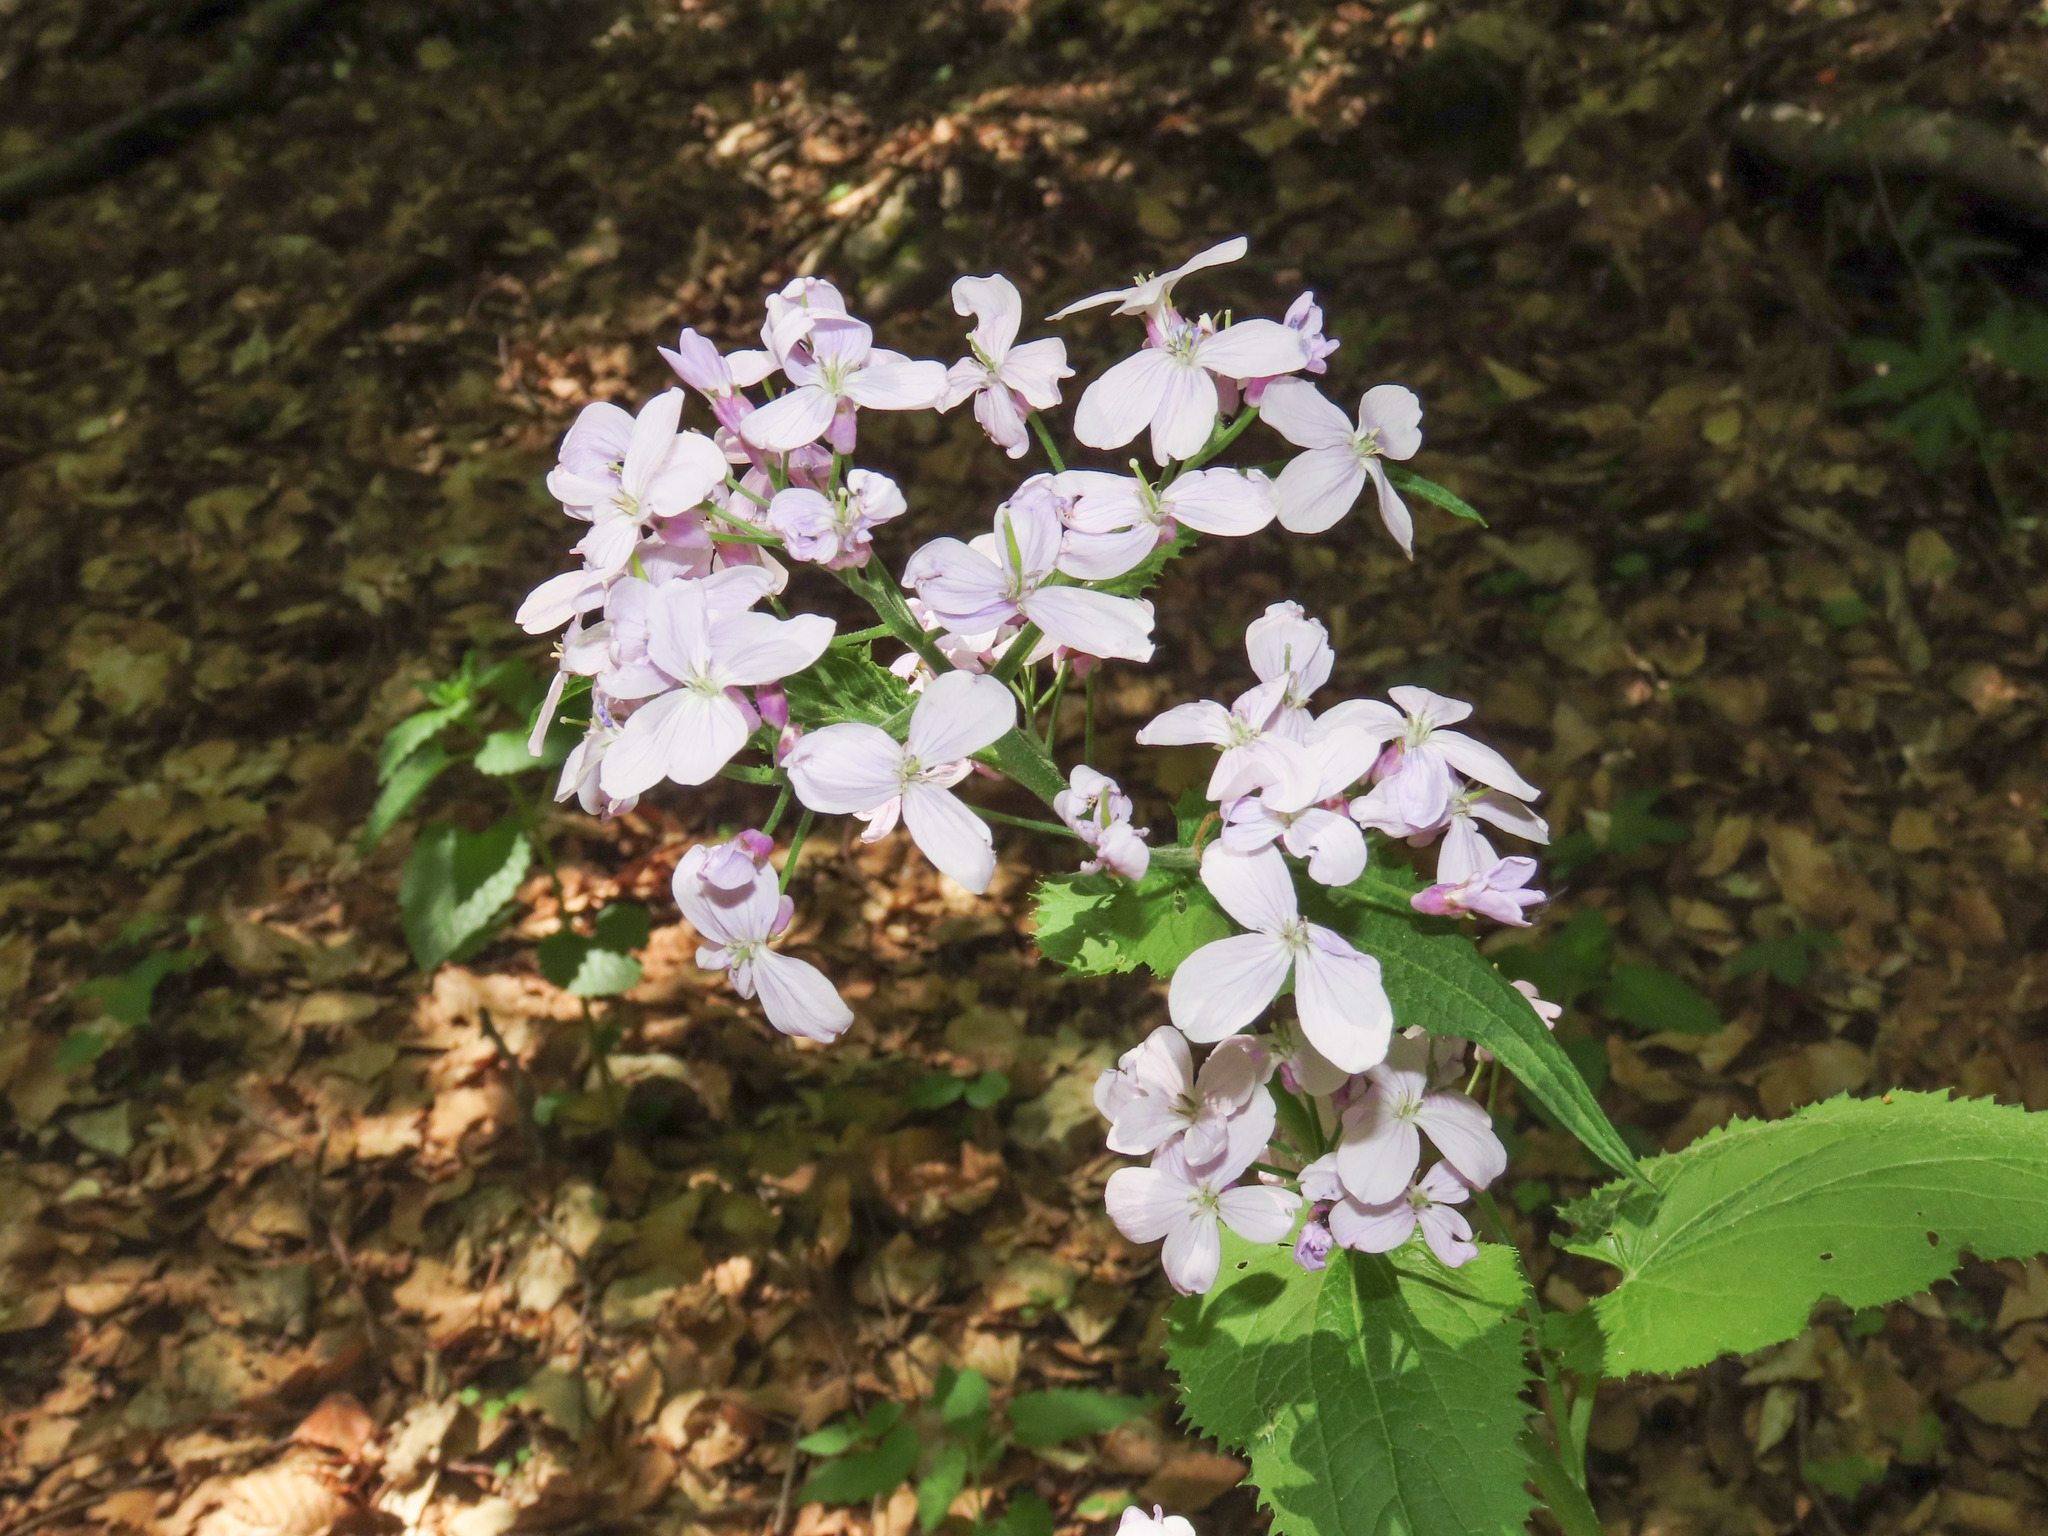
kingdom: Plantae
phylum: Tracheophyta
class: Magnoliopsida
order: Brassicales
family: Brassicaceae
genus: Lunaria
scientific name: Lunaria rediviva
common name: Perennial honesty
